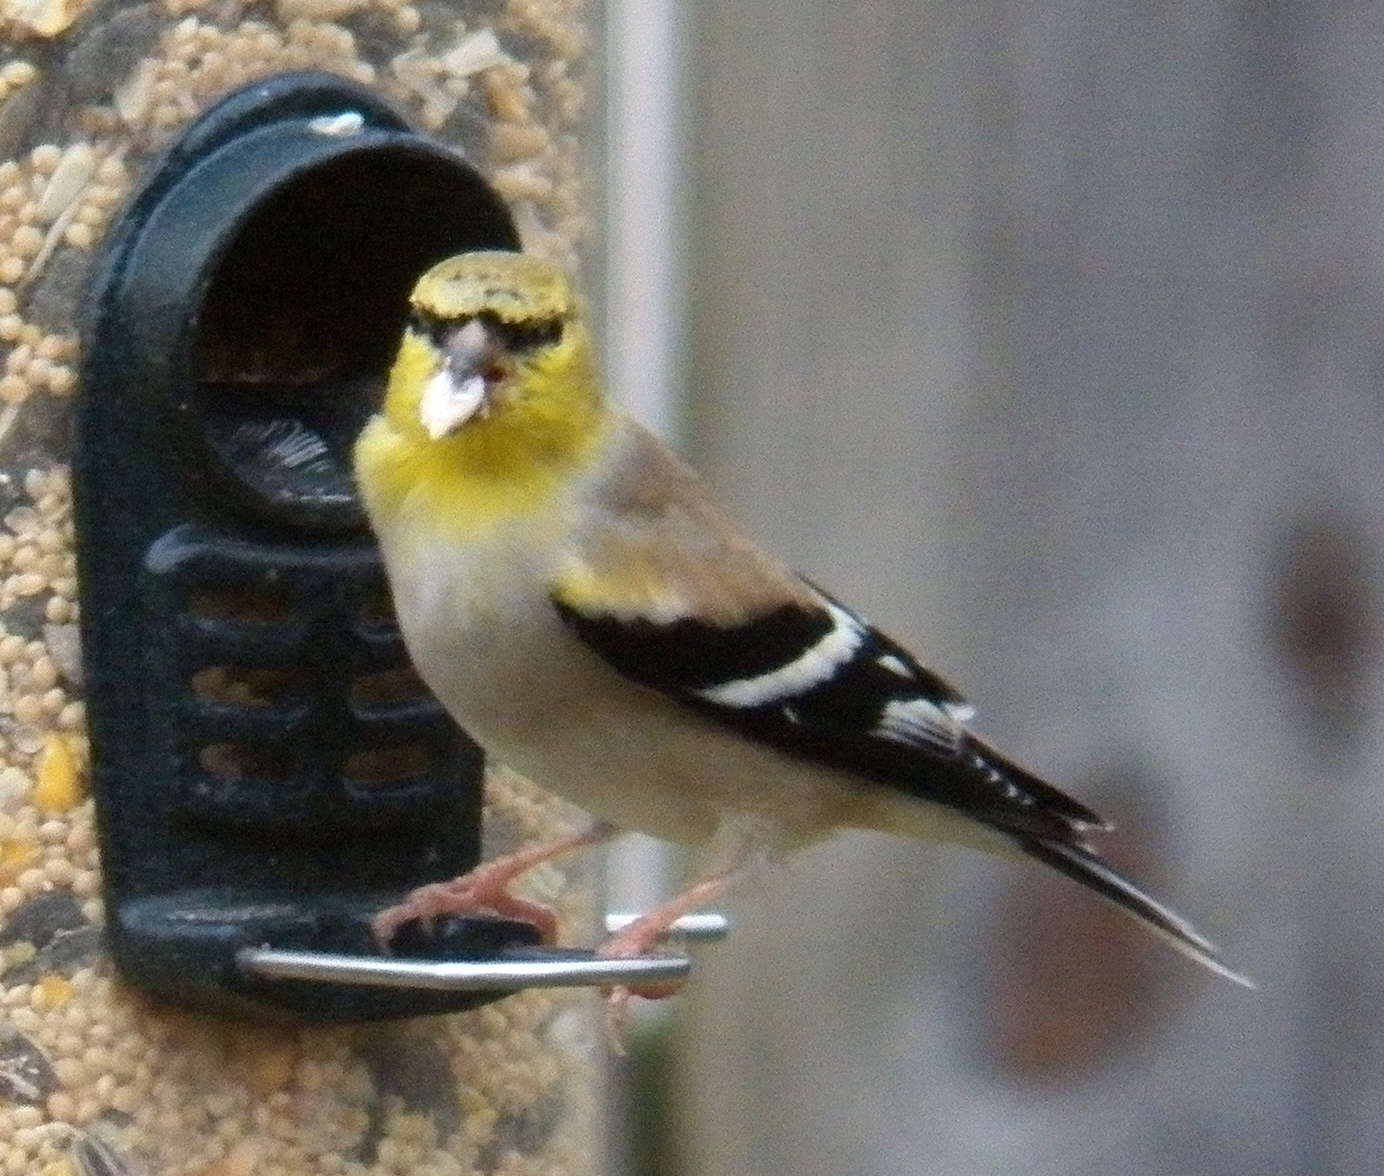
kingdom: Animalia
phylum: Chordata
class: Aves
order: Passeriformes
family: Fringillidae
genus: Spinus
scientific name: Spinus tristis
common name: American goldfinch
